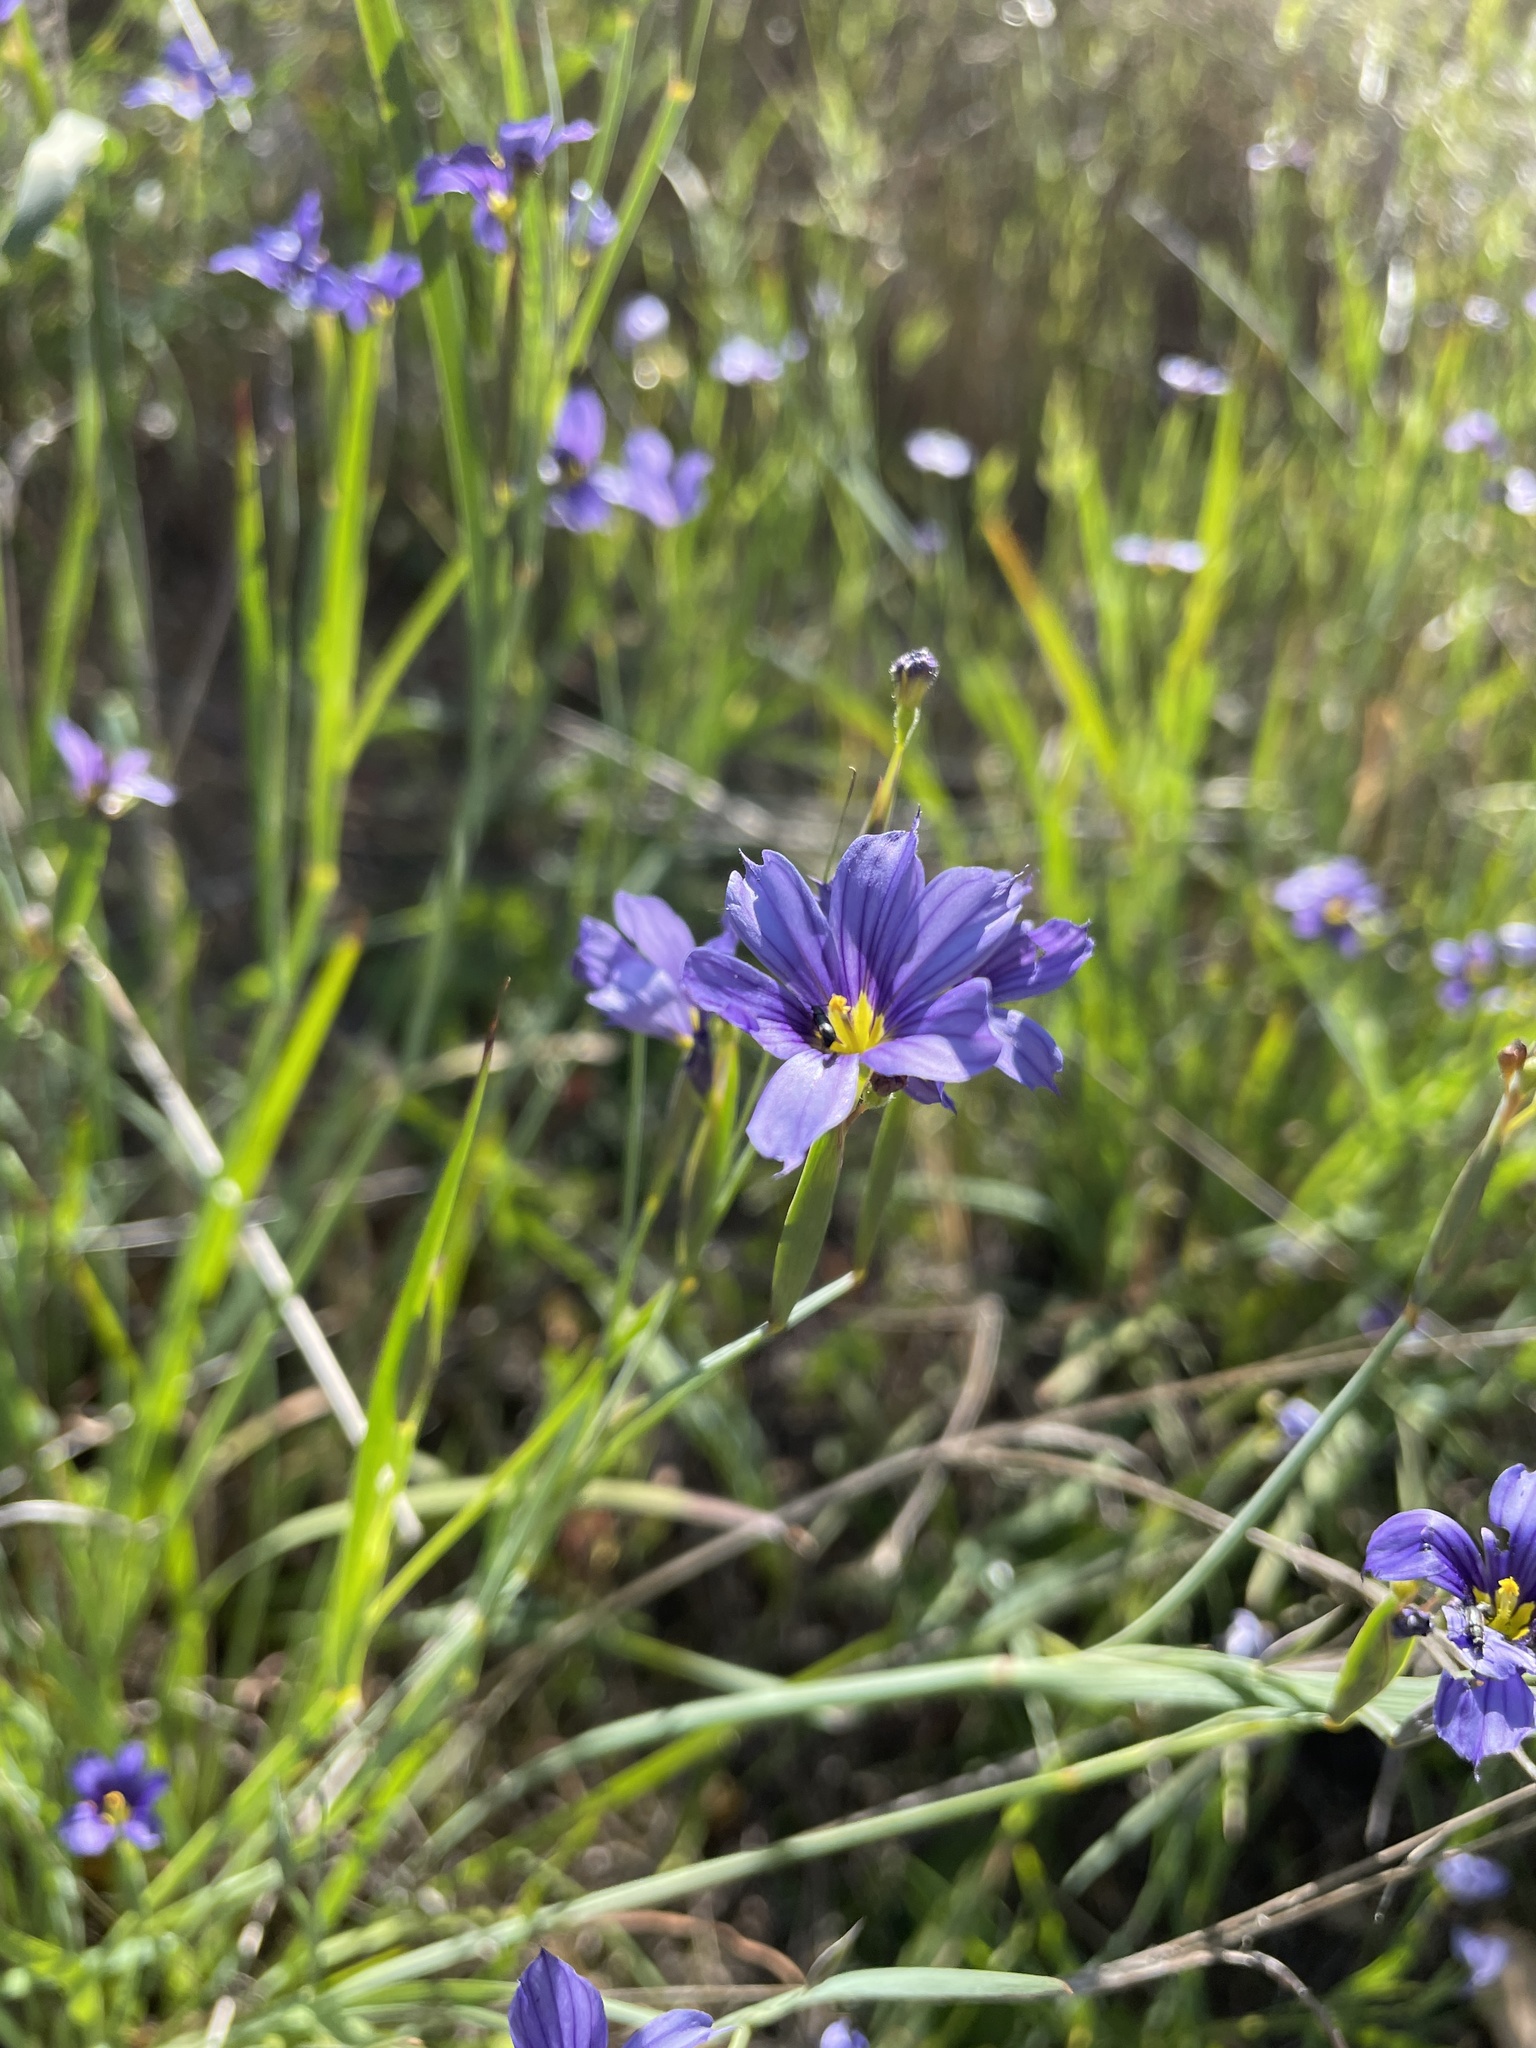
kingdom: Plantae
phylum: Tracheophyta
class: Liliopsida
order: Asparagales
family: Iridaceae
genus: Sisyrinchium
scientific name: Sisyrinchium bellum
